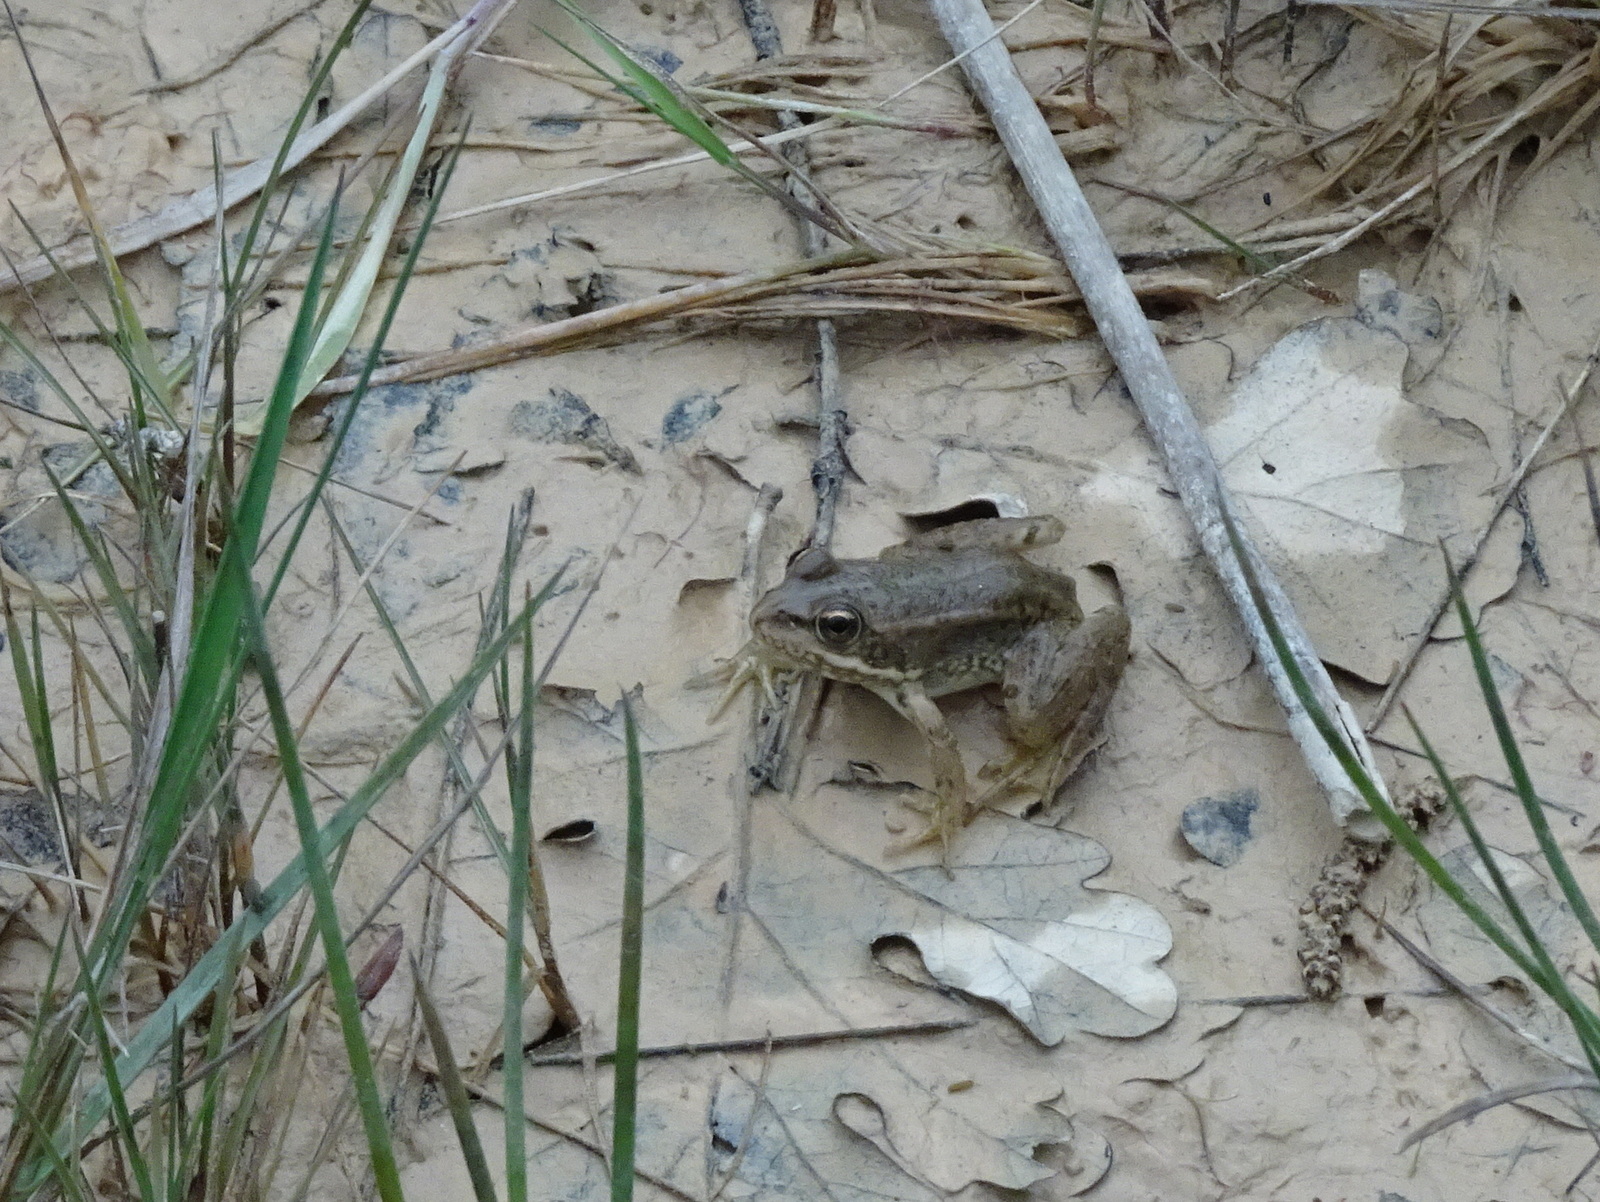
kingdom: Animalia
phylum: Chordata
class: Amphibia
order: Anura
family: Ranidae
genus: Pelophylax
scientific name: Pelophylax
